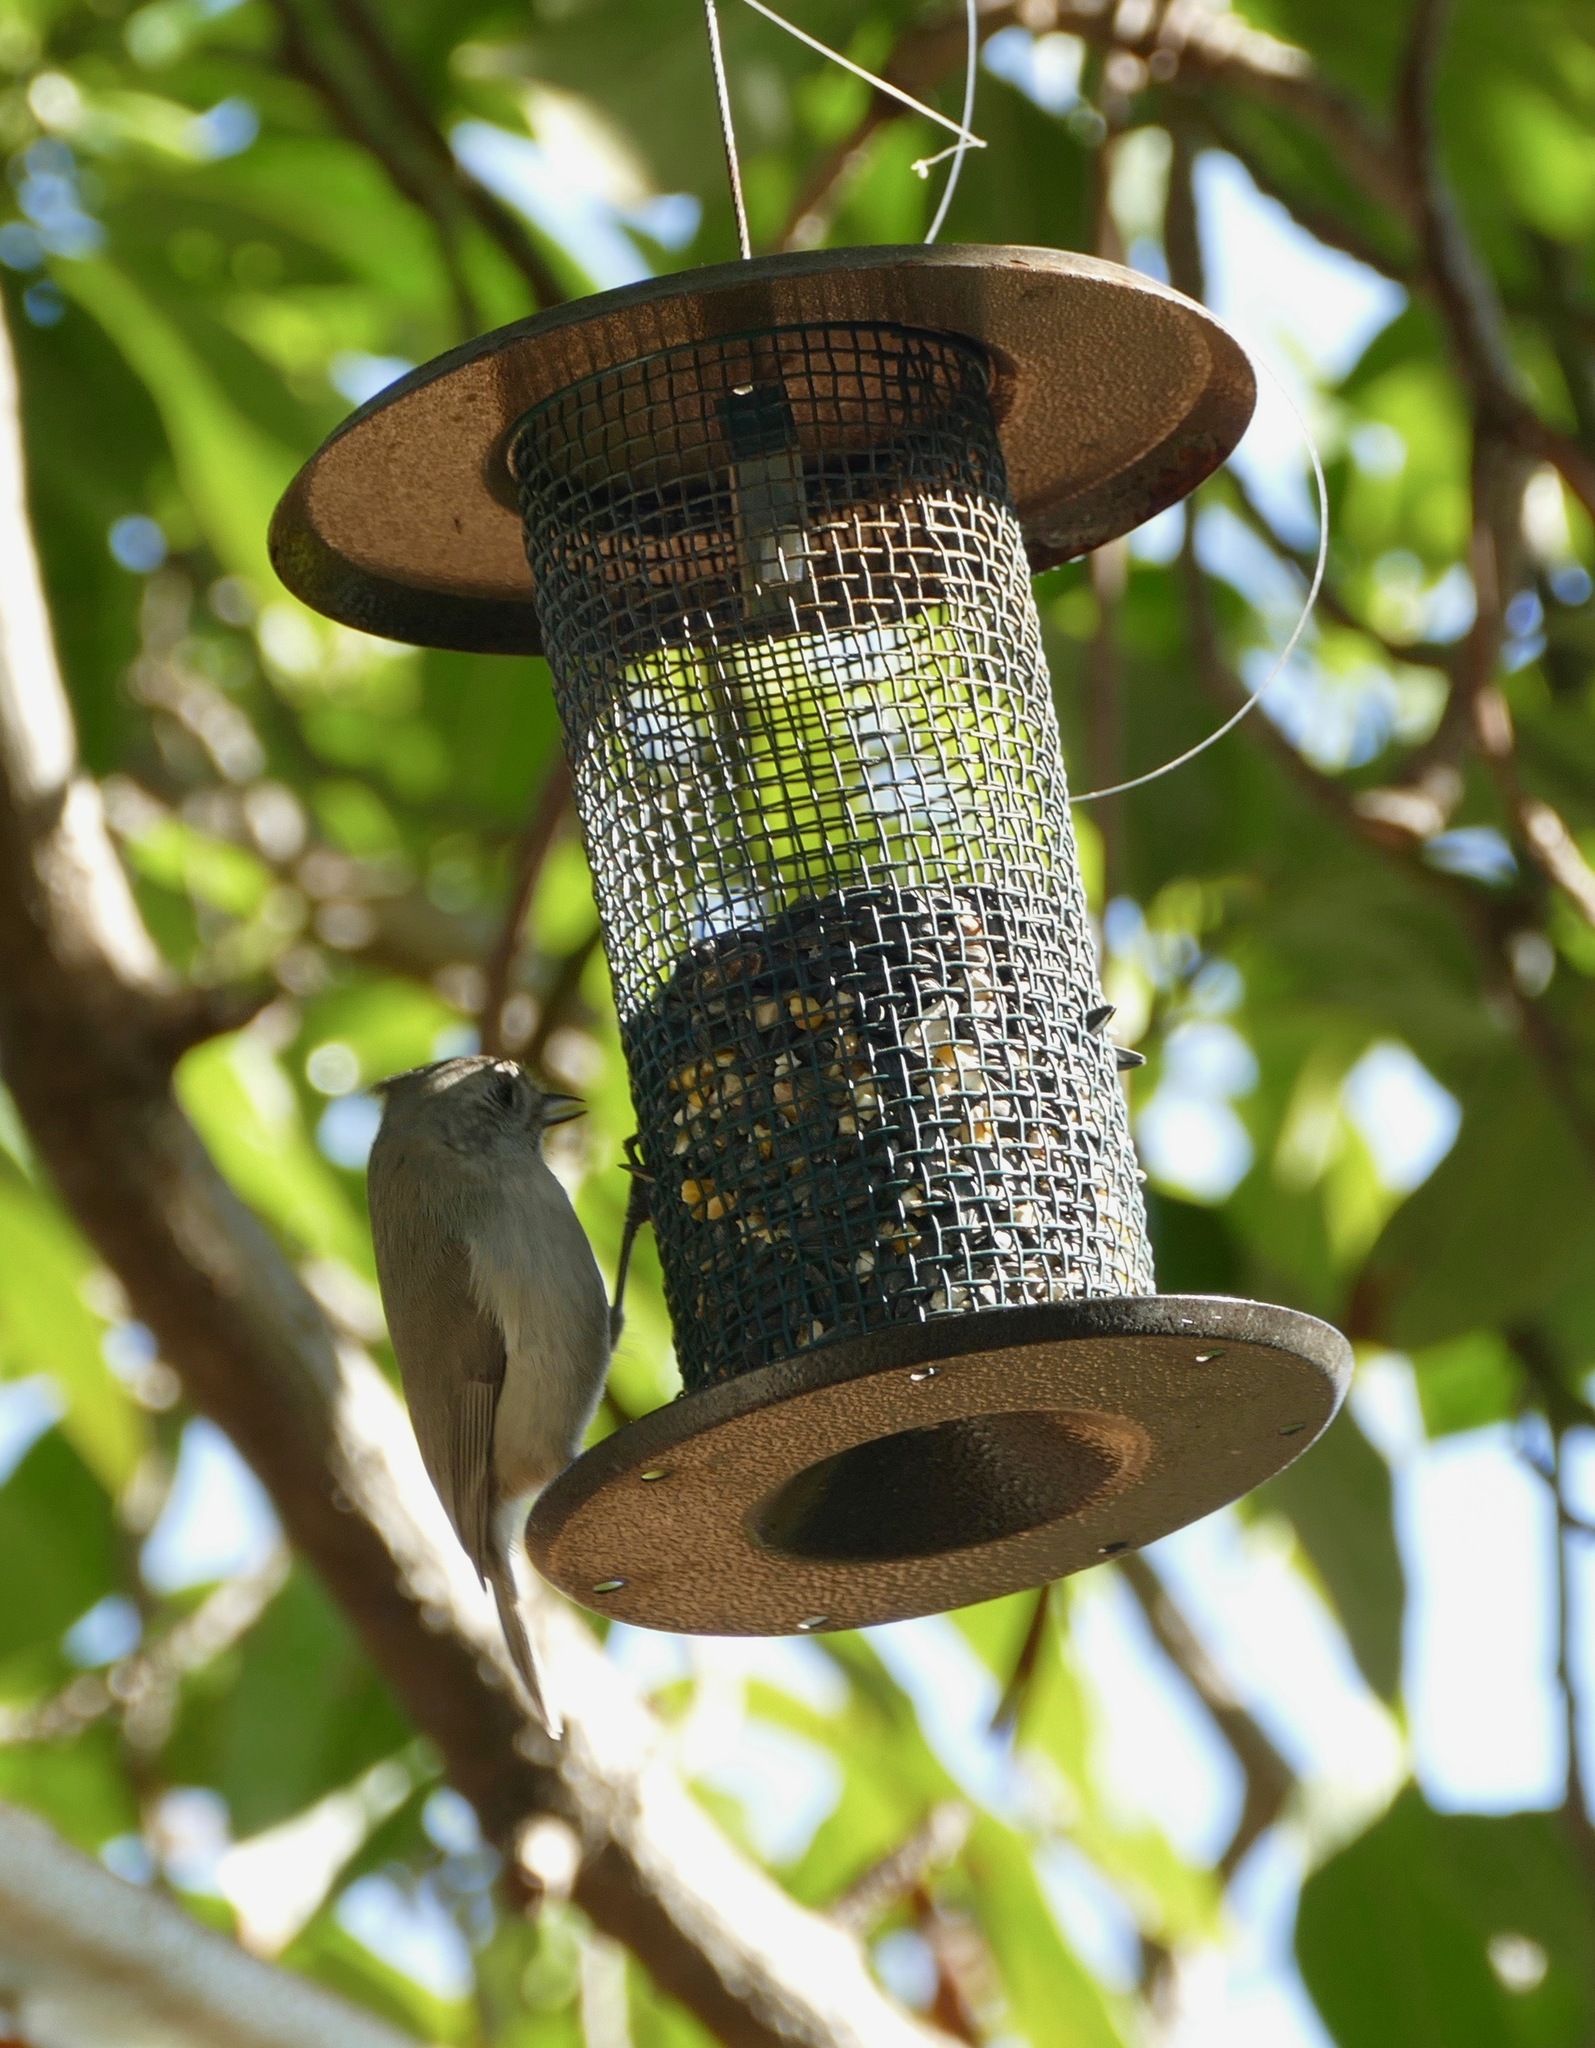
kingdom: Animalia
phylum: Chordata
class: Aves
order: Passeriformes
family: Paridae
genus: Baeolophus
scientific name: Baeolophus inornatus
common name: Oak titmouse
